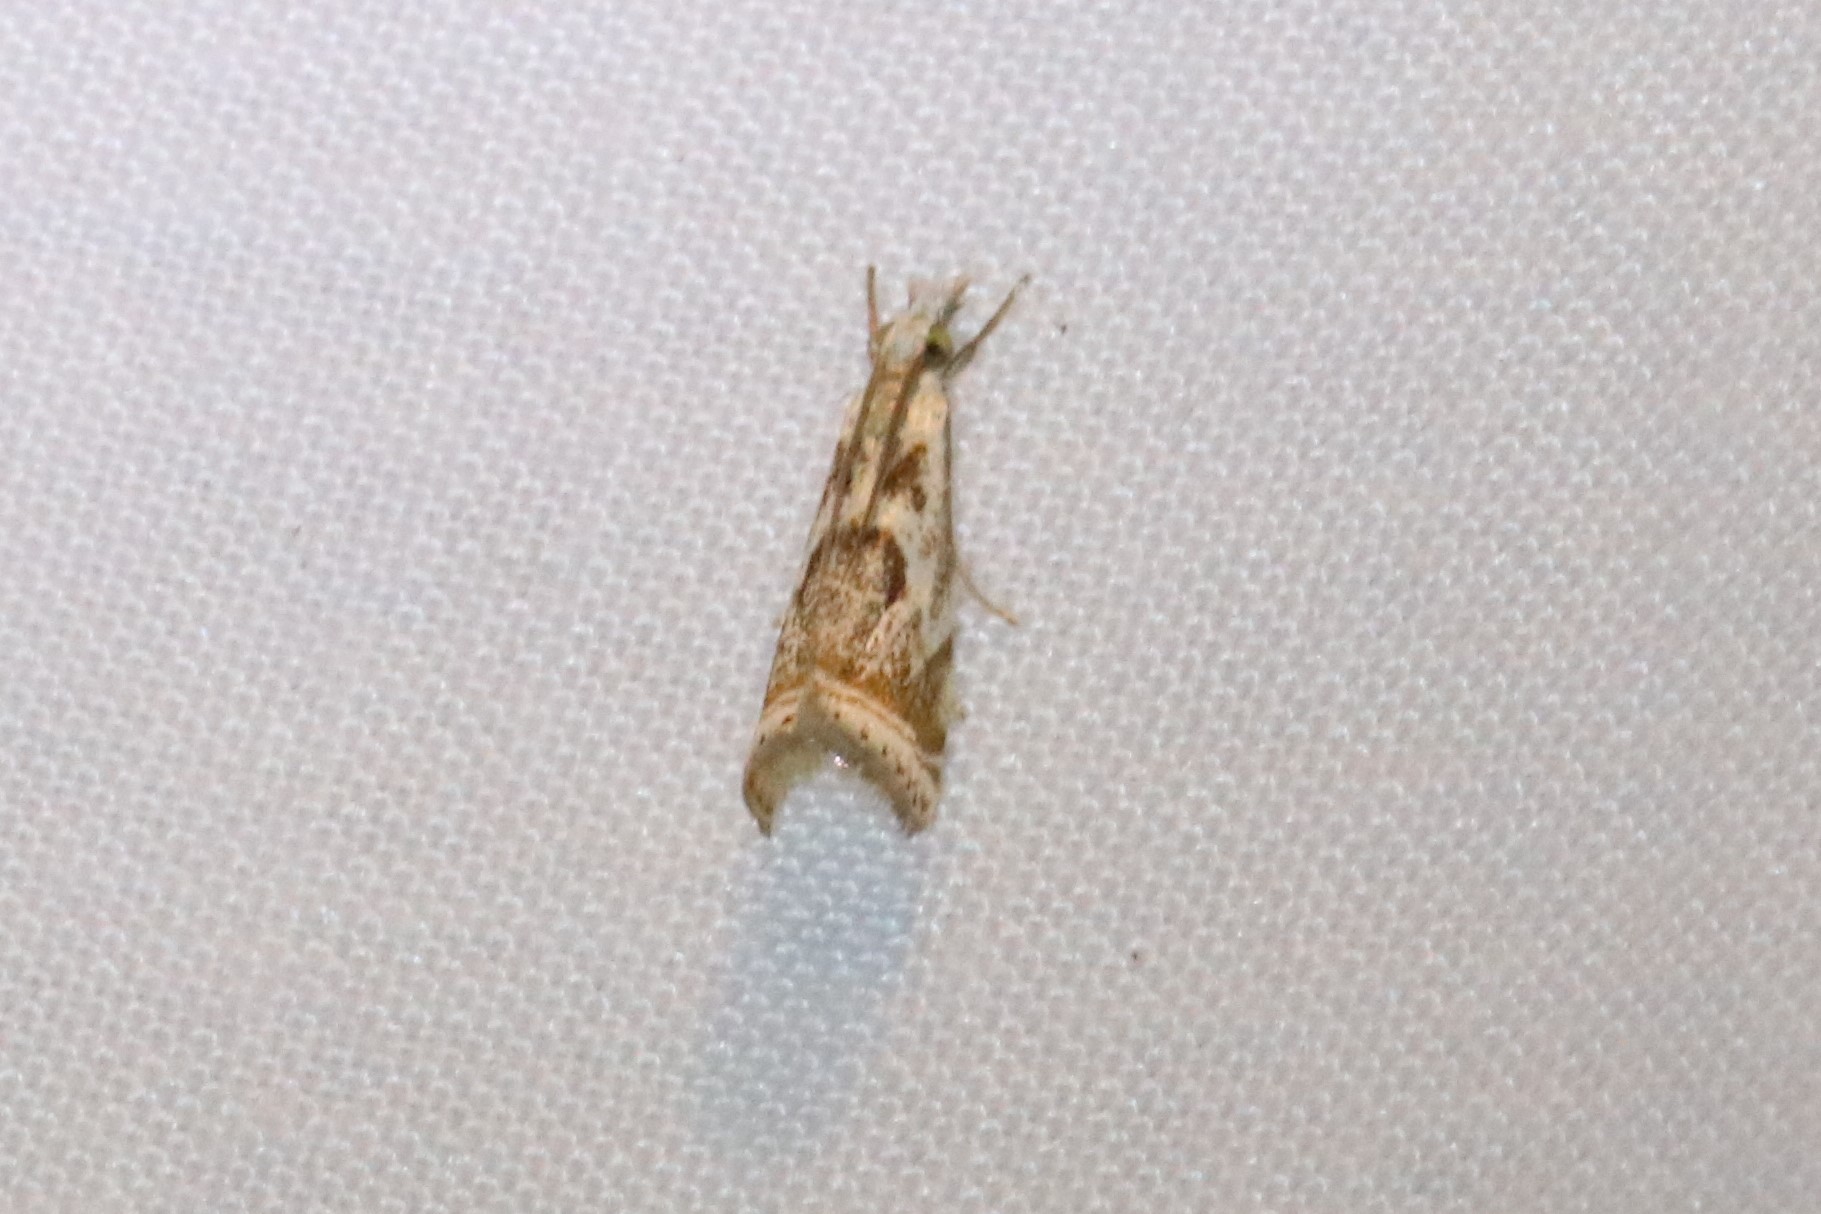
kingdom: Animalia
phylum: Arthropoda
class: Insecta
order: Lepidoptera
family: Crambidae
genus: Microcrambus
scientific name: Microcrambus elegans
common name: Elegant grass-veneer
